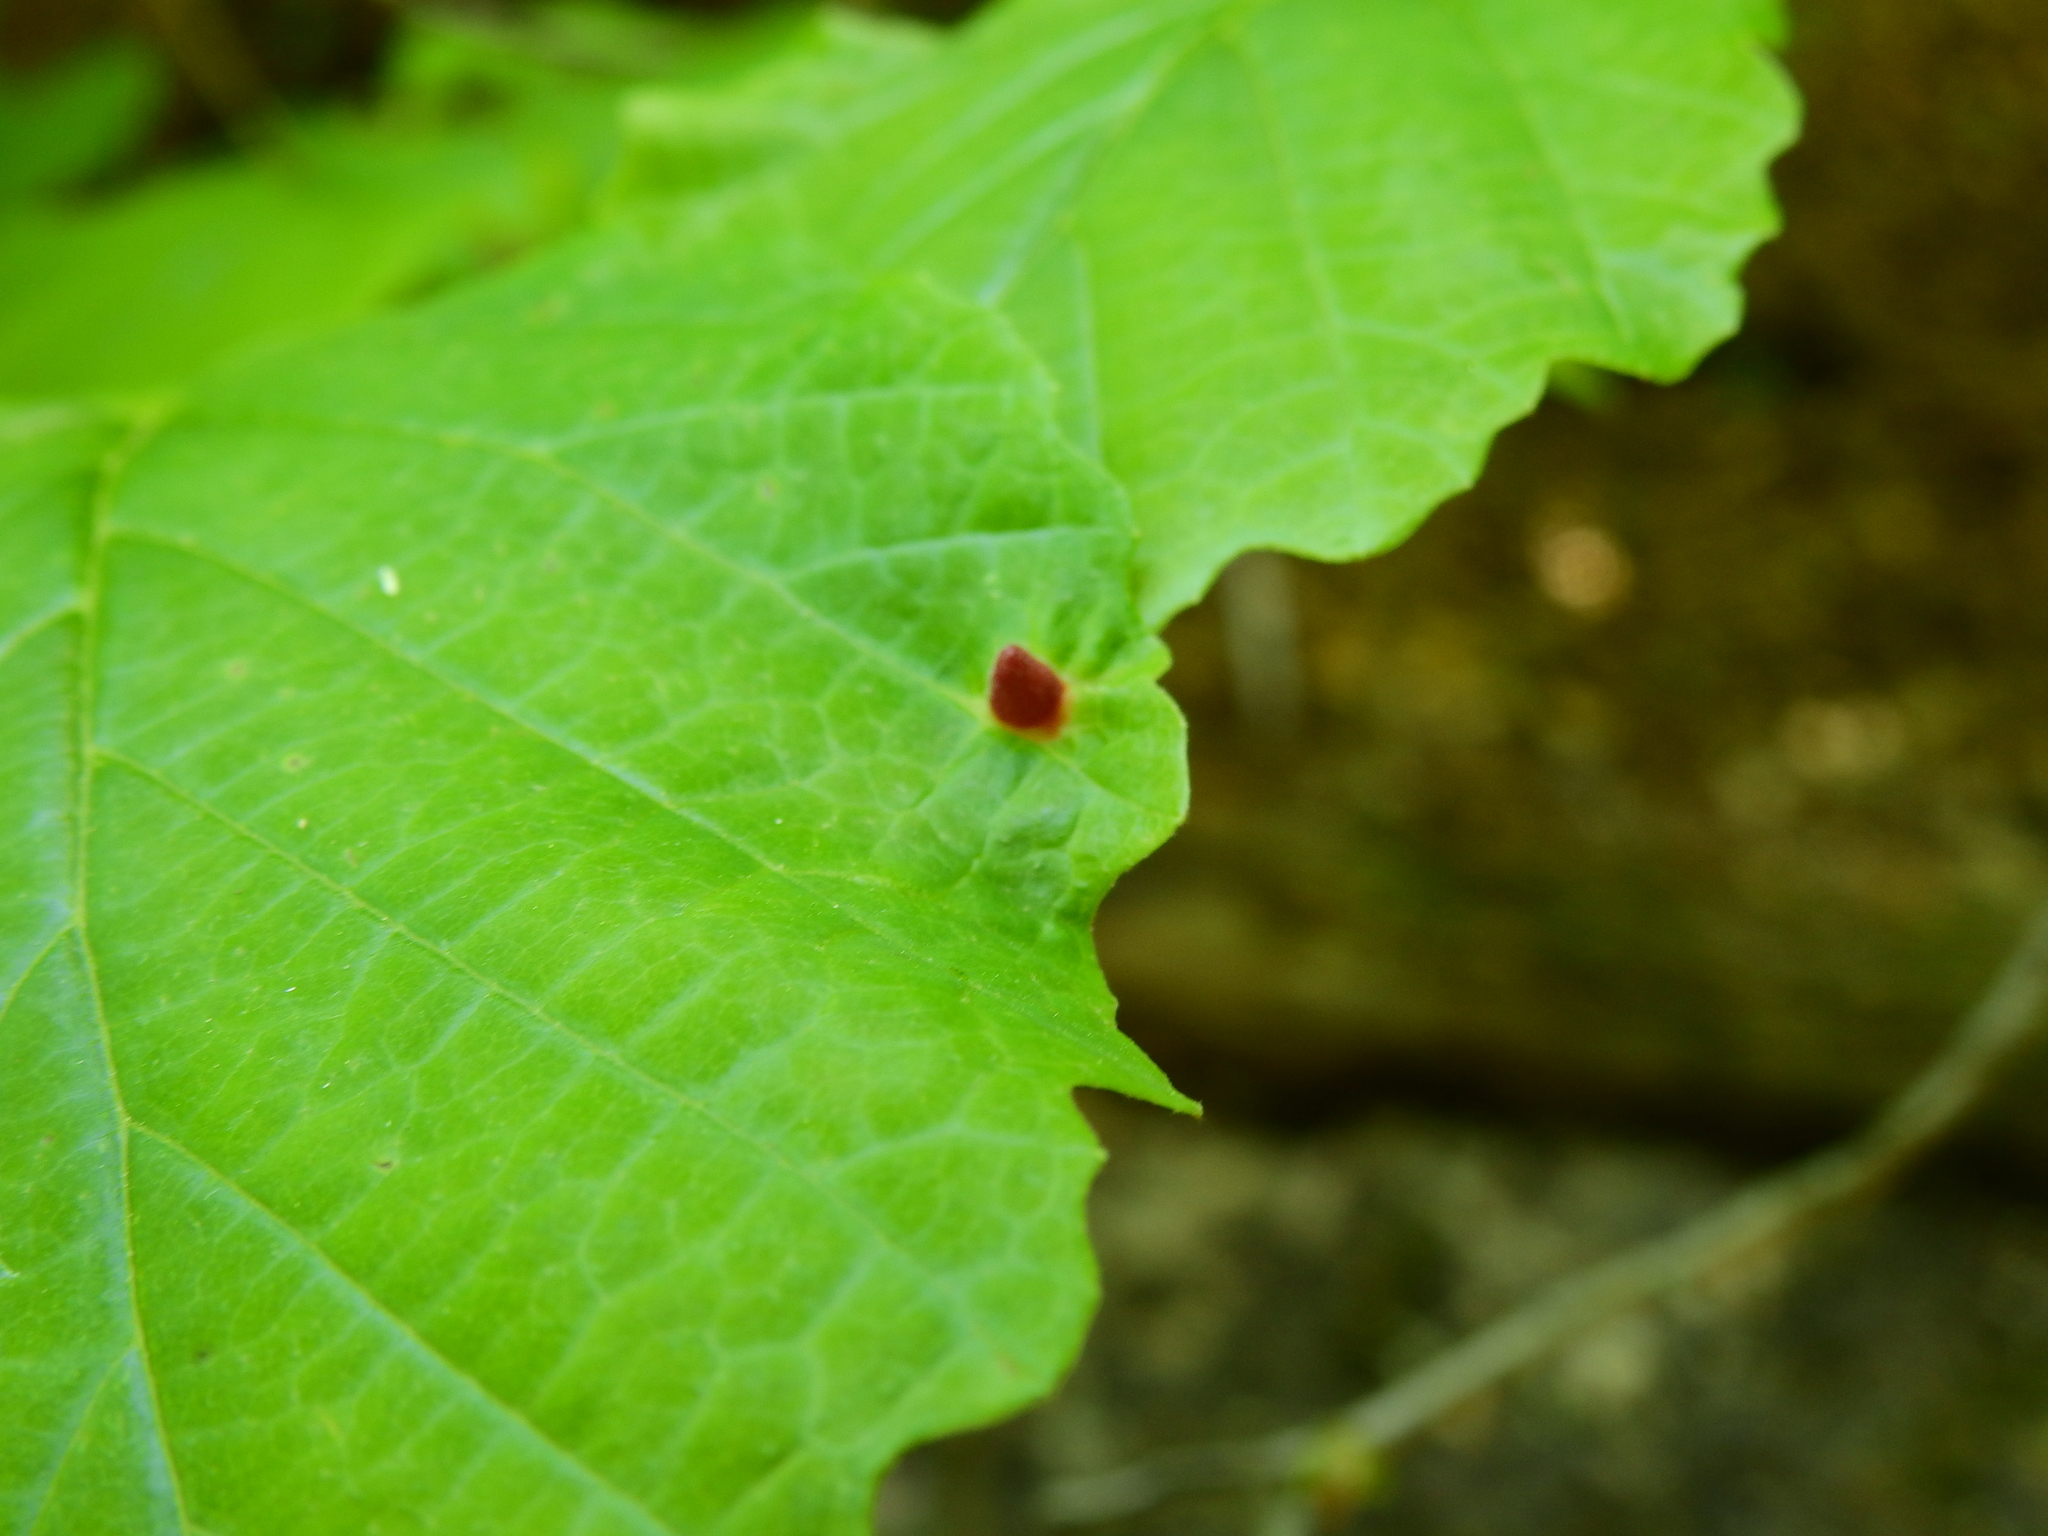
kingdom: Animalia
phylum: Arthropoda
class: Insecta
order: Hemiptera
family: Aphididae
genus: Hormaphis
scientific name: Hormaphis hamamelidis
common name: Witch-hazel cone gall aphid
